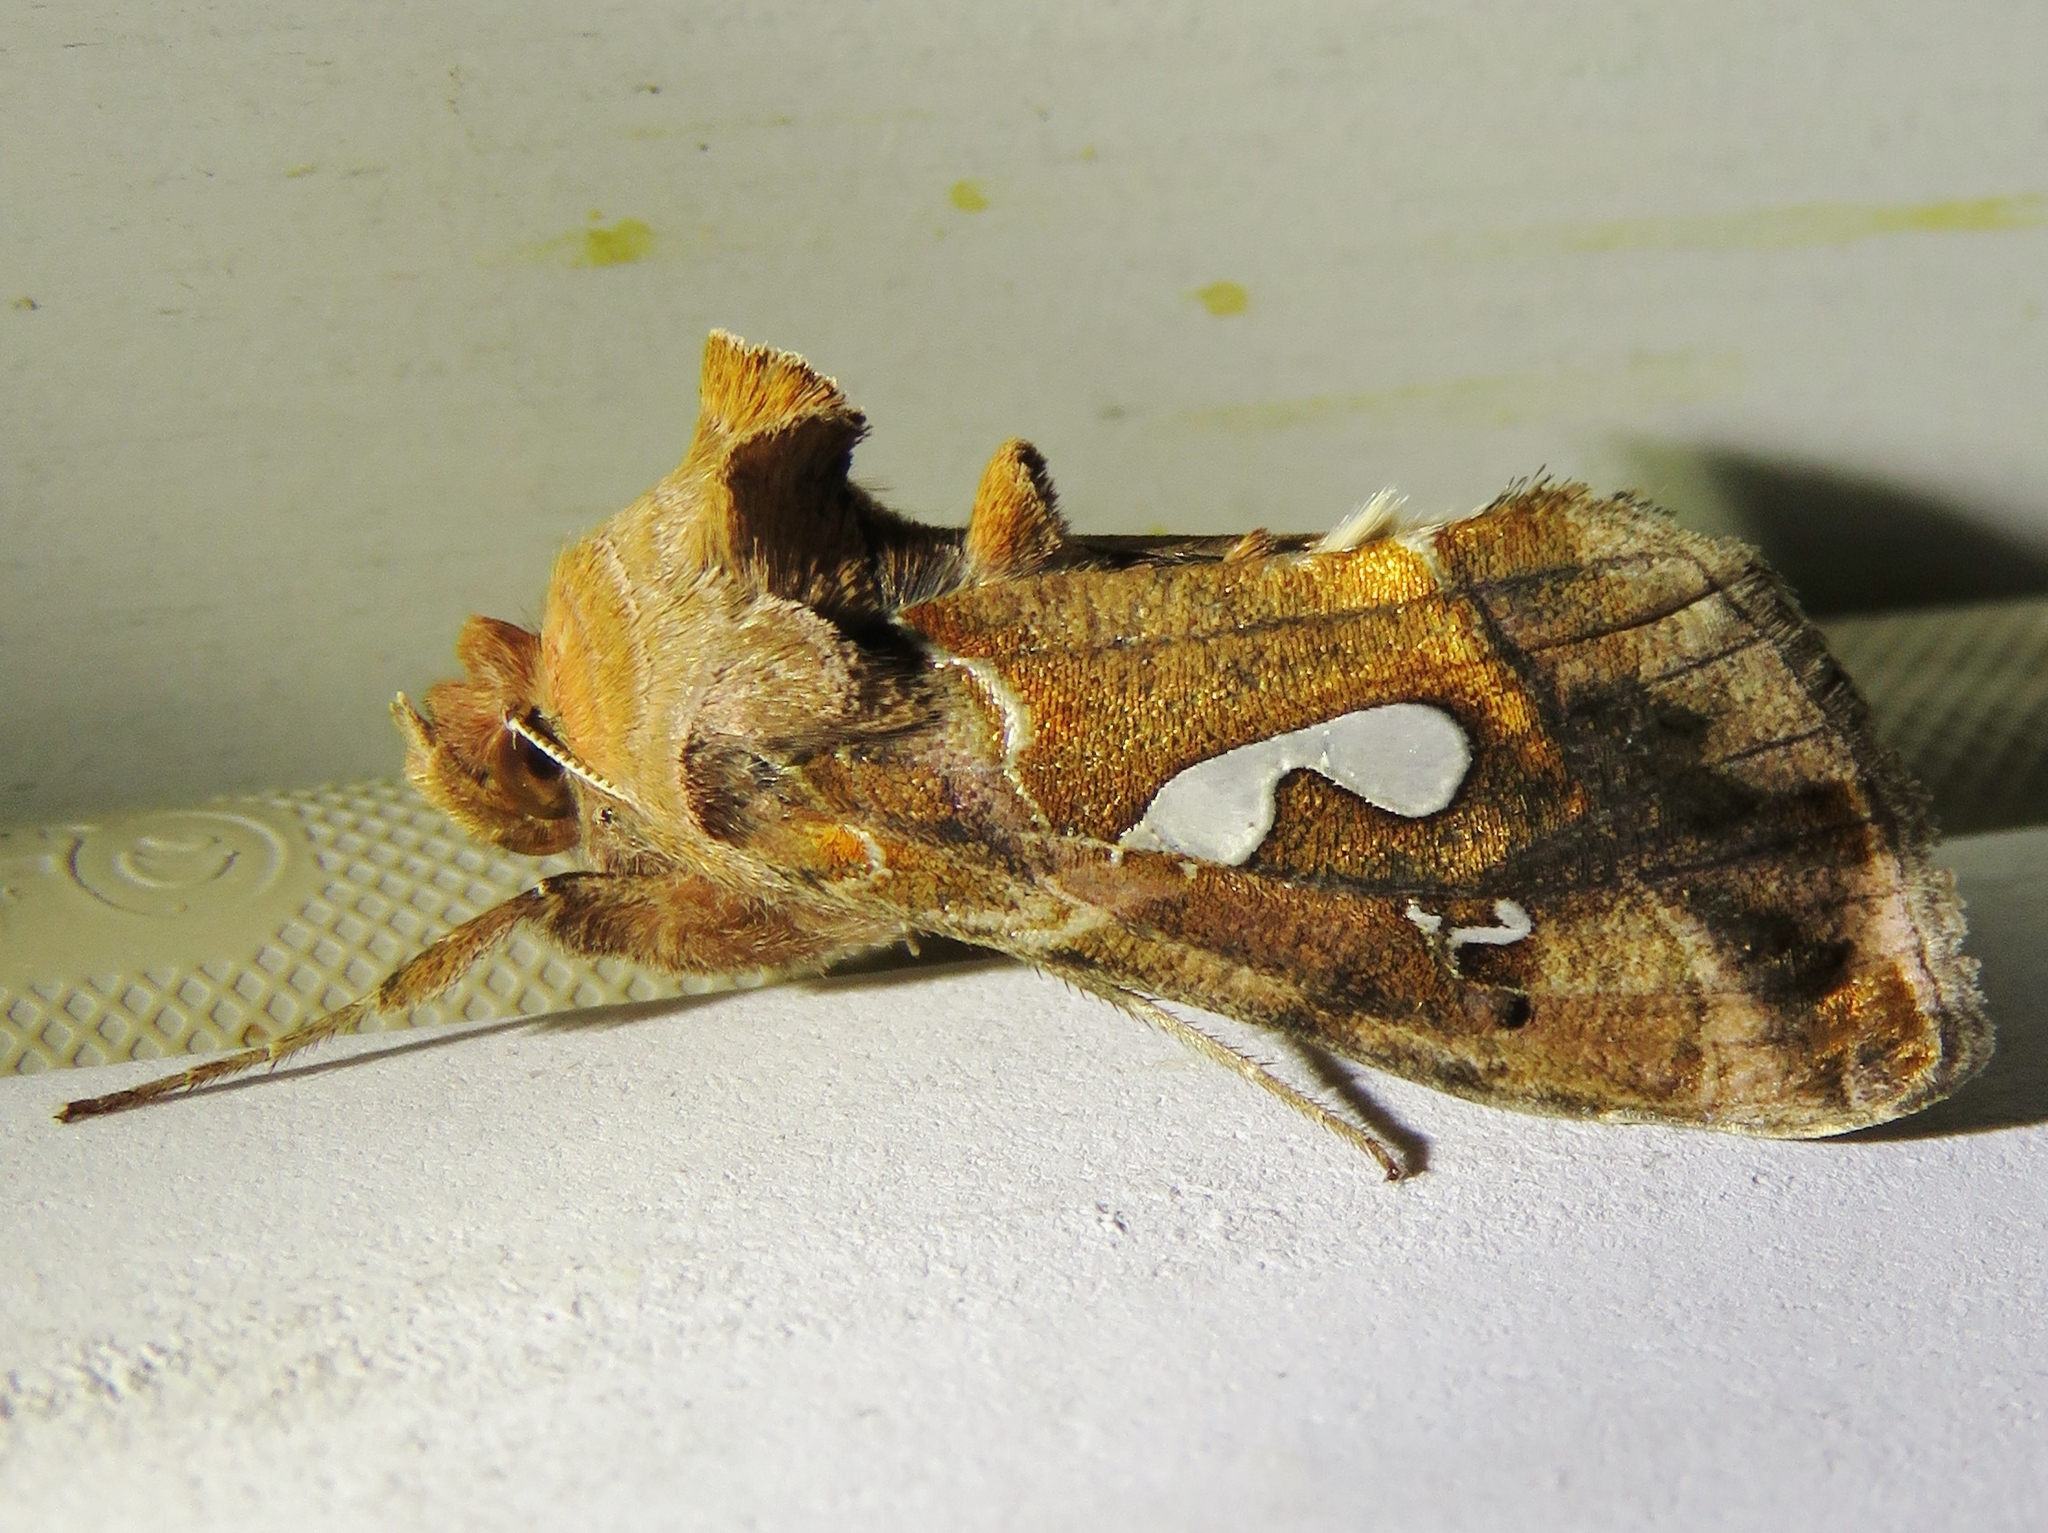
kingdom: Animalia
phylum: Arthropoda
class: Insecta
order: Lepidoptera
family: Noctuidae
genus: Megalographa
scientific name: Megalographa biloba
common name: Cutworm
